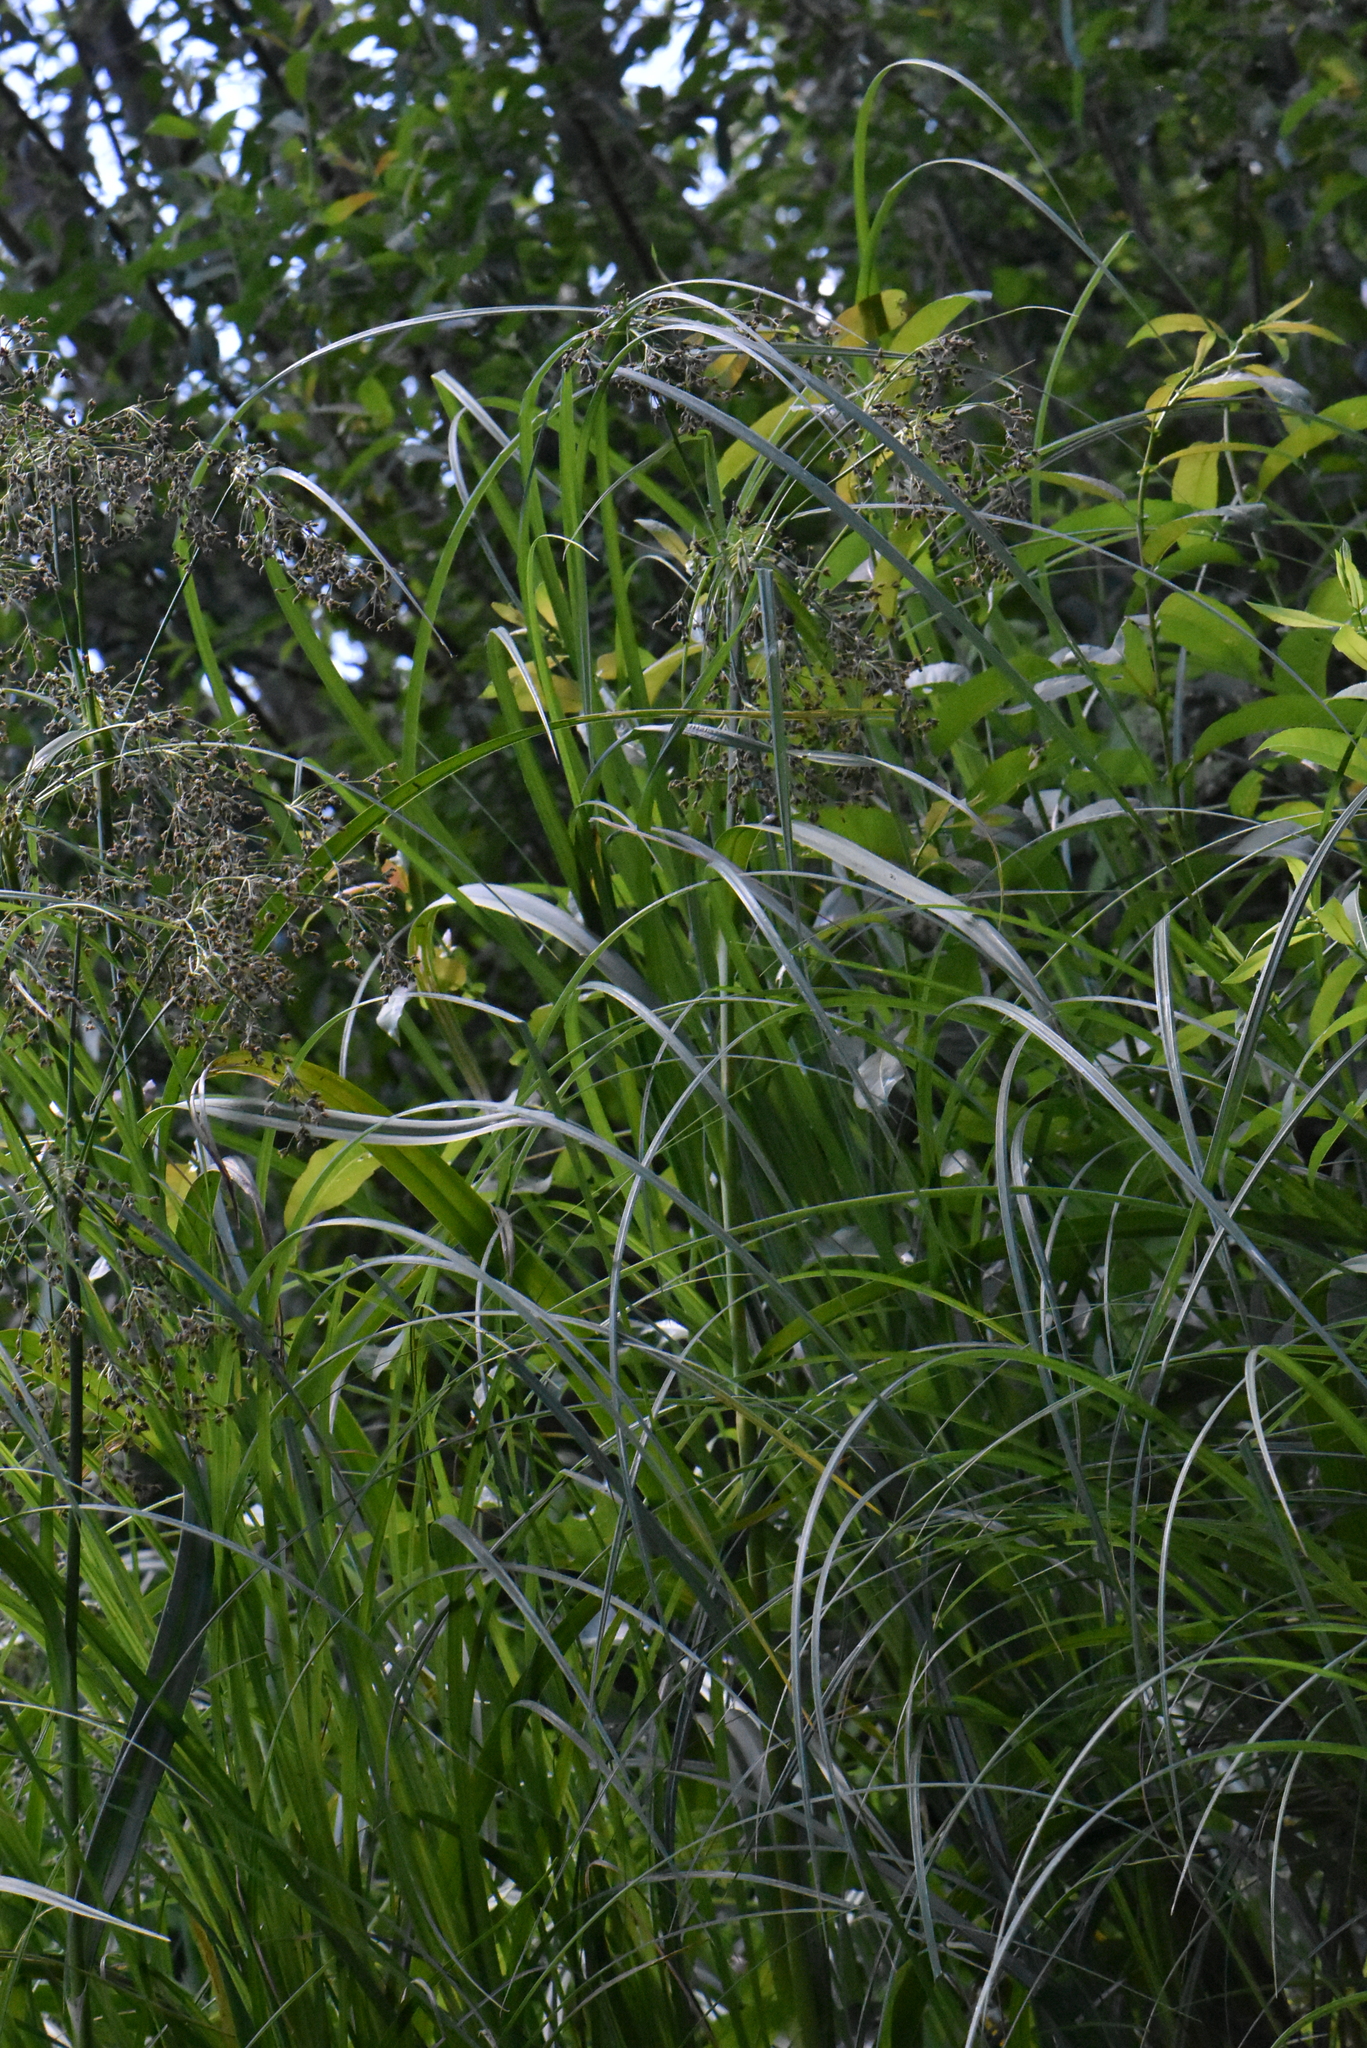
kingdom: Plantae
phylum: Tracheophyta
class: Liliopsida
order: Poales
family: Cyperaceae
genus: Scirpus
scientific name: Scirpus sylvaticus
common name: Wood club-rush
